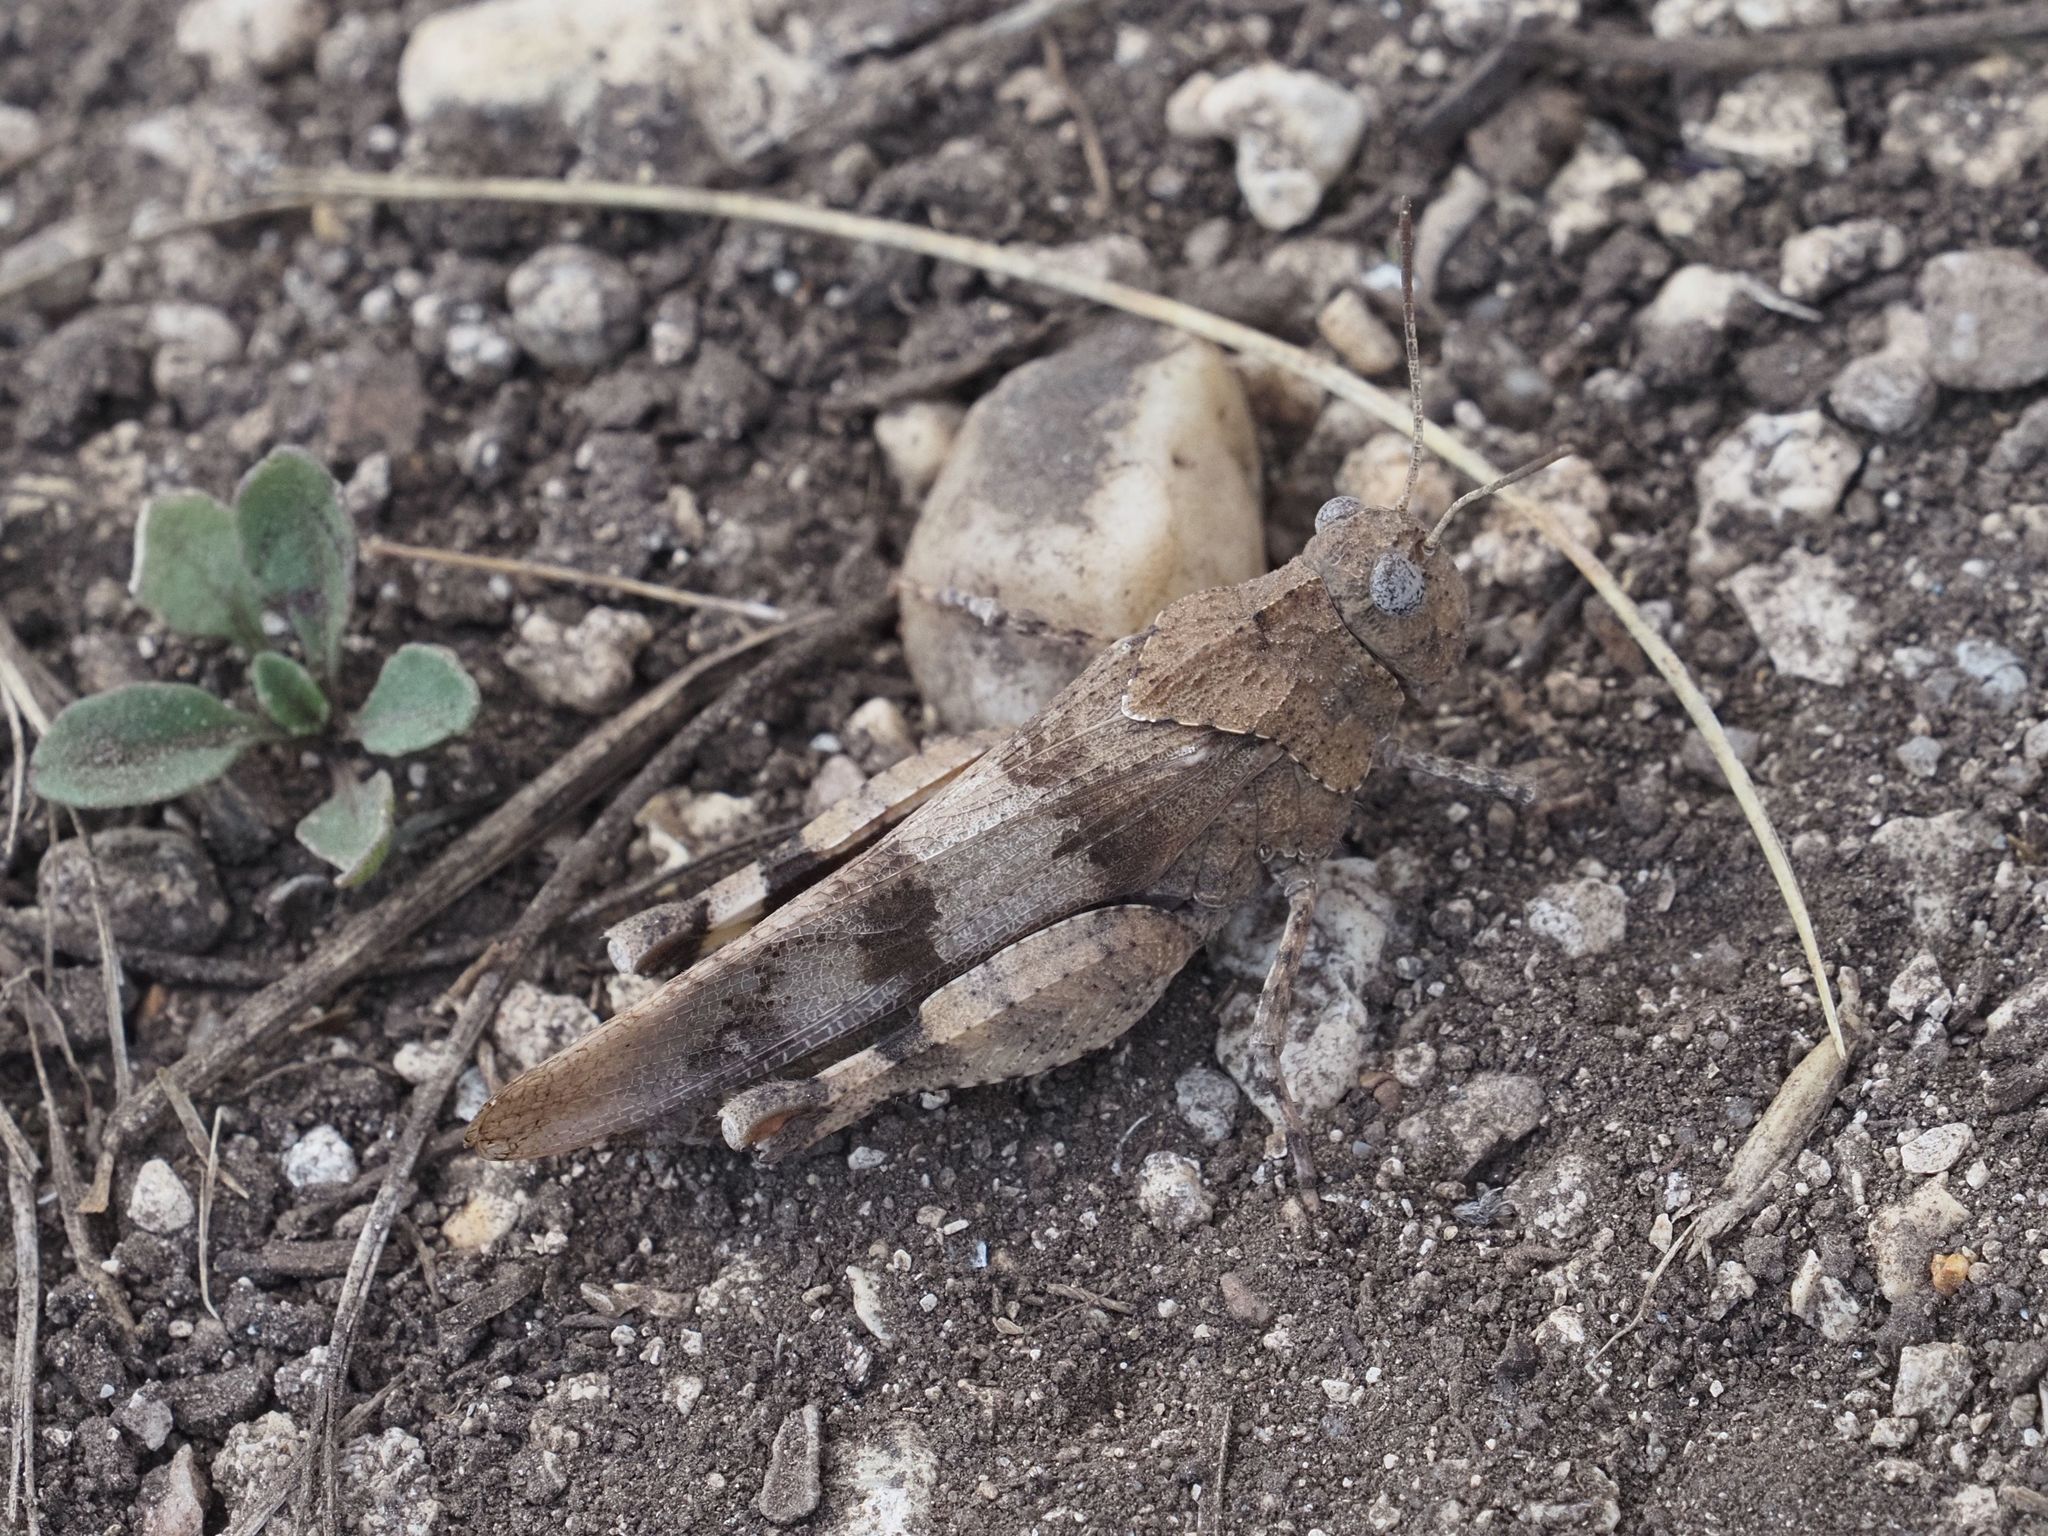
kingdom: Animalia
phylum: Arthropoda
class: Insecta
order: Orthoptera
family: Acrididae
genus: Oedipoda
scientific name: Oedipoda caerulescens
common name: Blue-winged grasshopper
